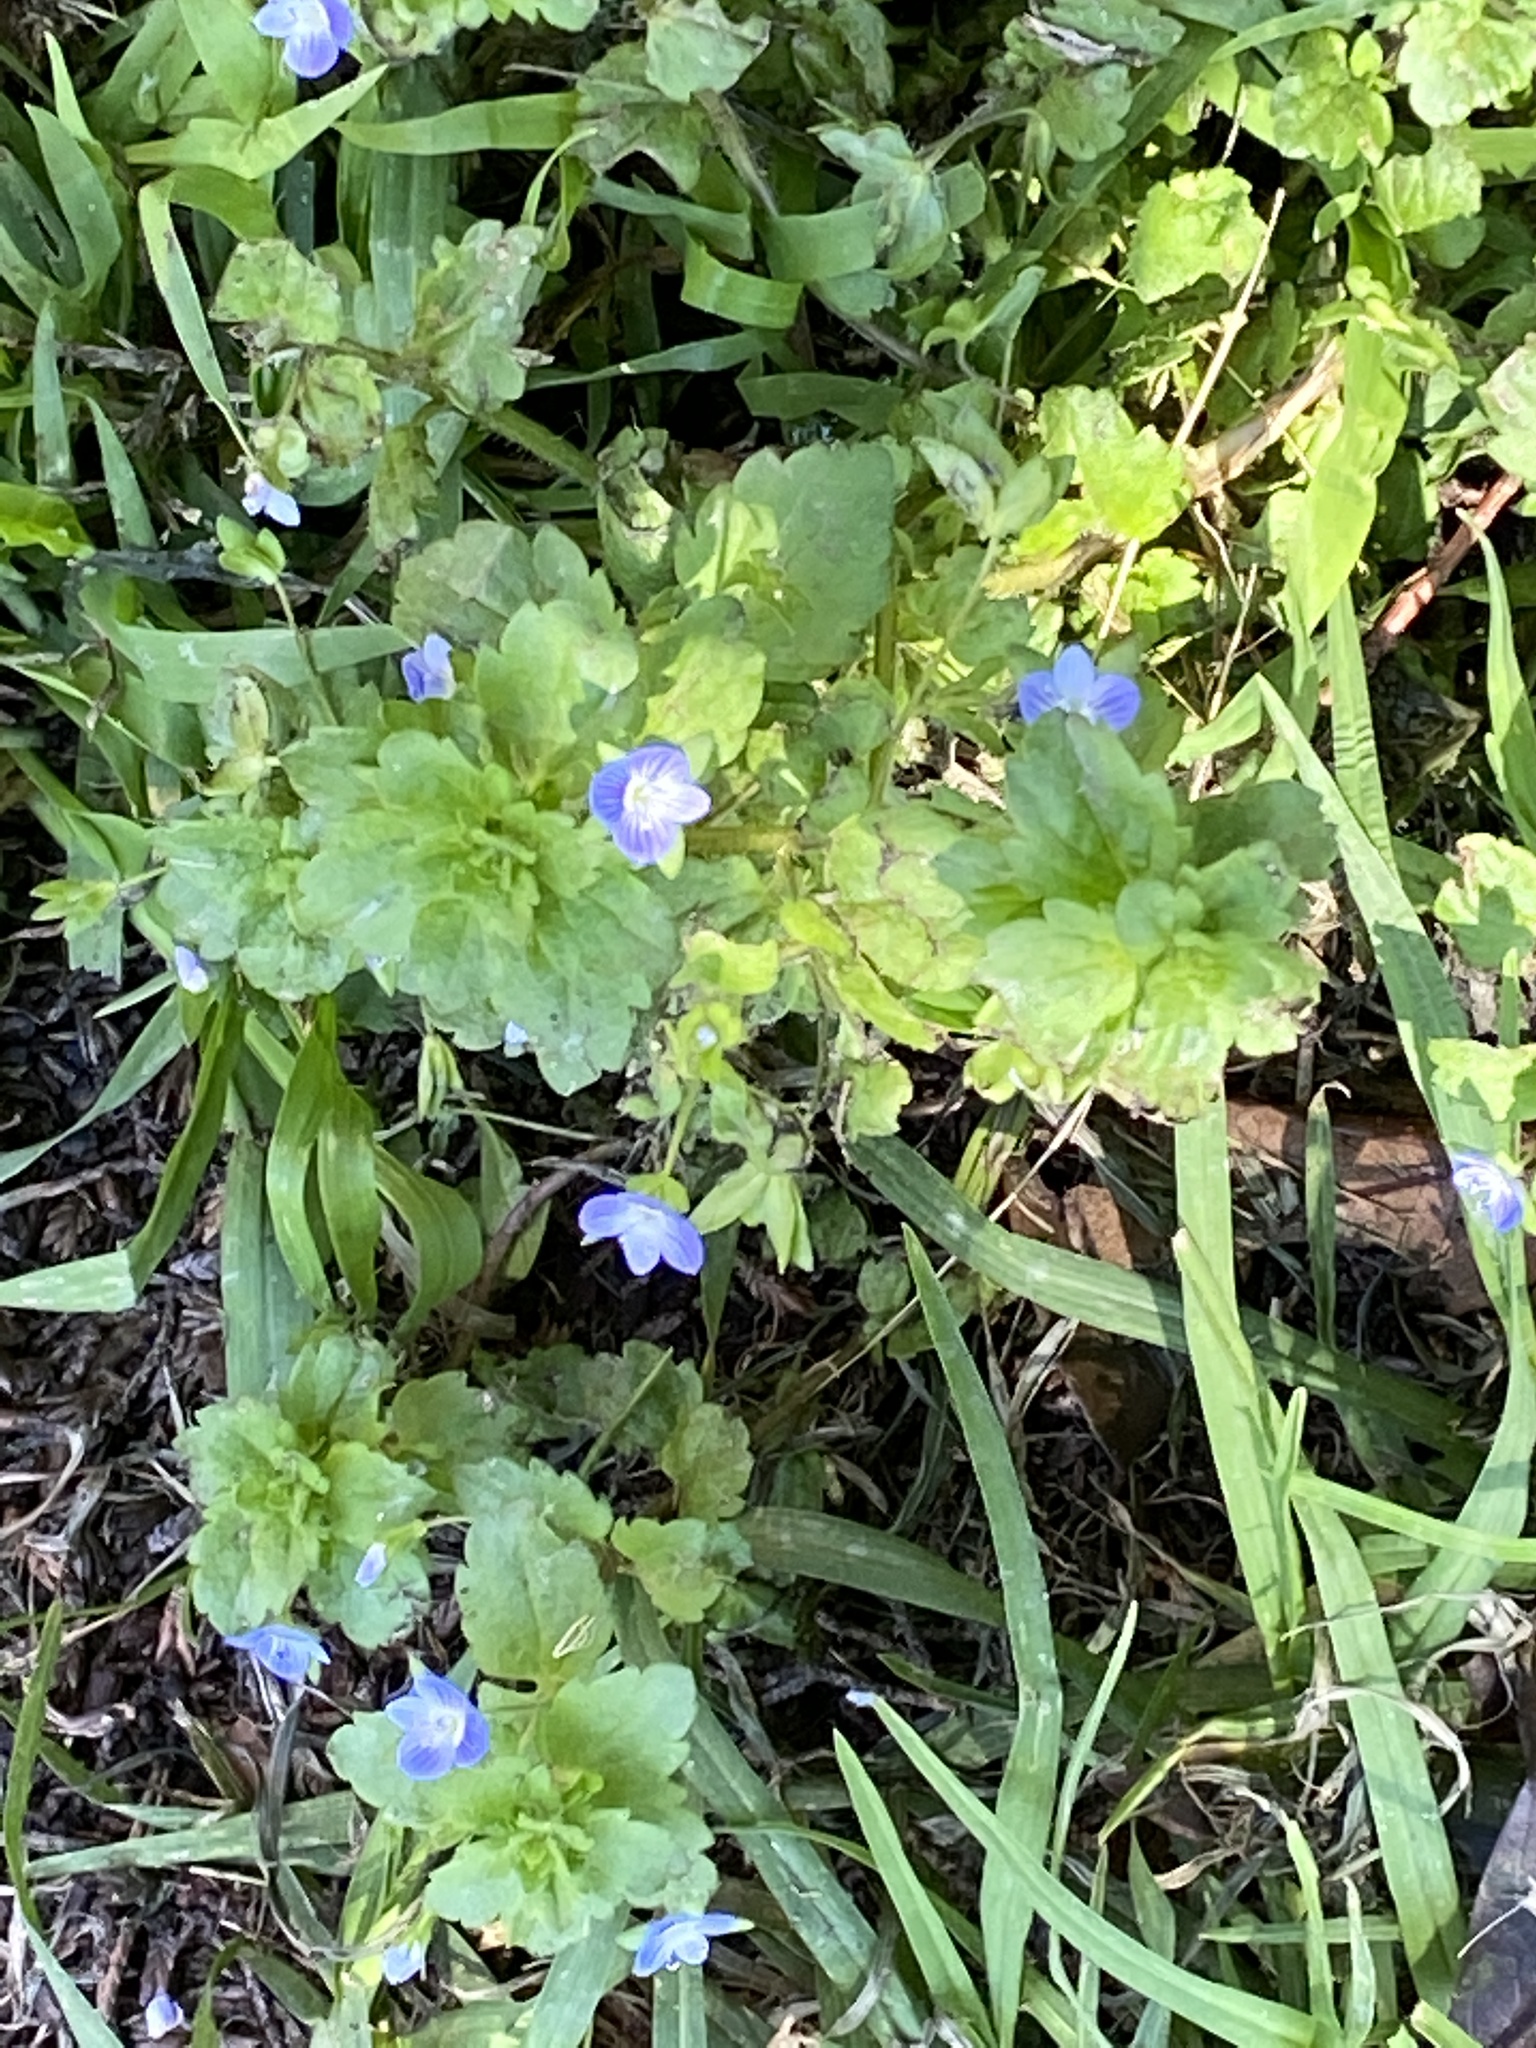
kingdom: Plantae
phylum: Tracheophyta
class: Magnoliopsida
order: Lamiales
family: Plantaginaceae
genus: Veronica
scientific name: Veronica persica
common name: Common field-speedwell
